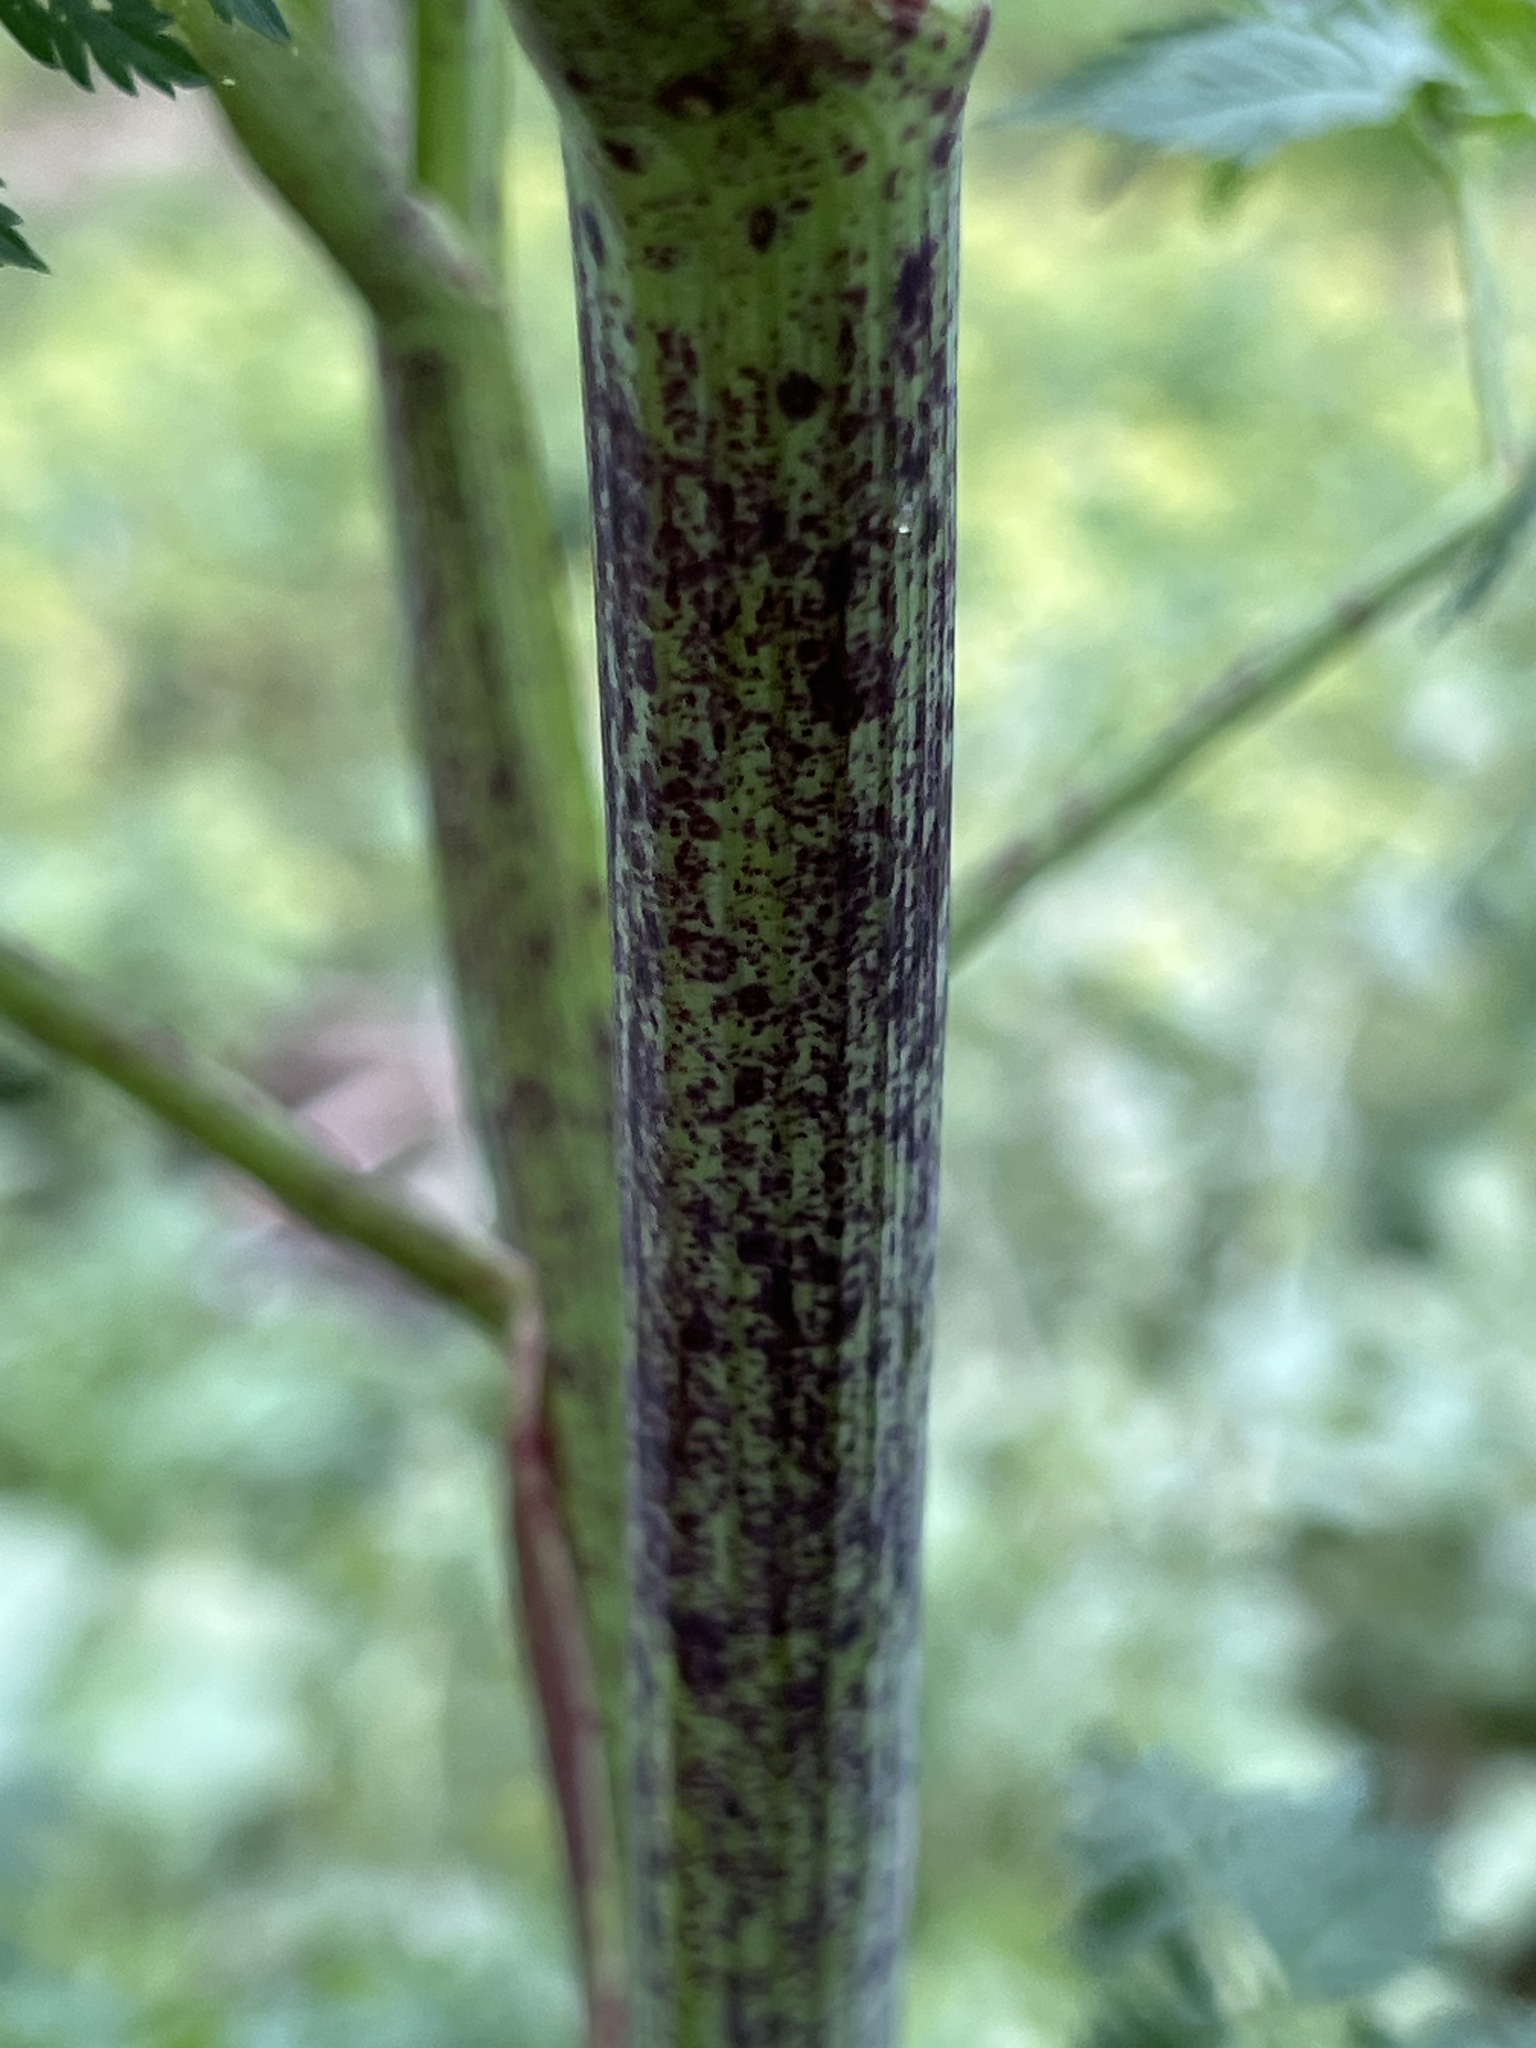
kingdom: Plantae
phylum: Tracheophyta
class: Magnoliopsida
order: Apiales
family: Apiaceae
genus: Conium
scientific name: Conium maculatum
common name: Hemlock
